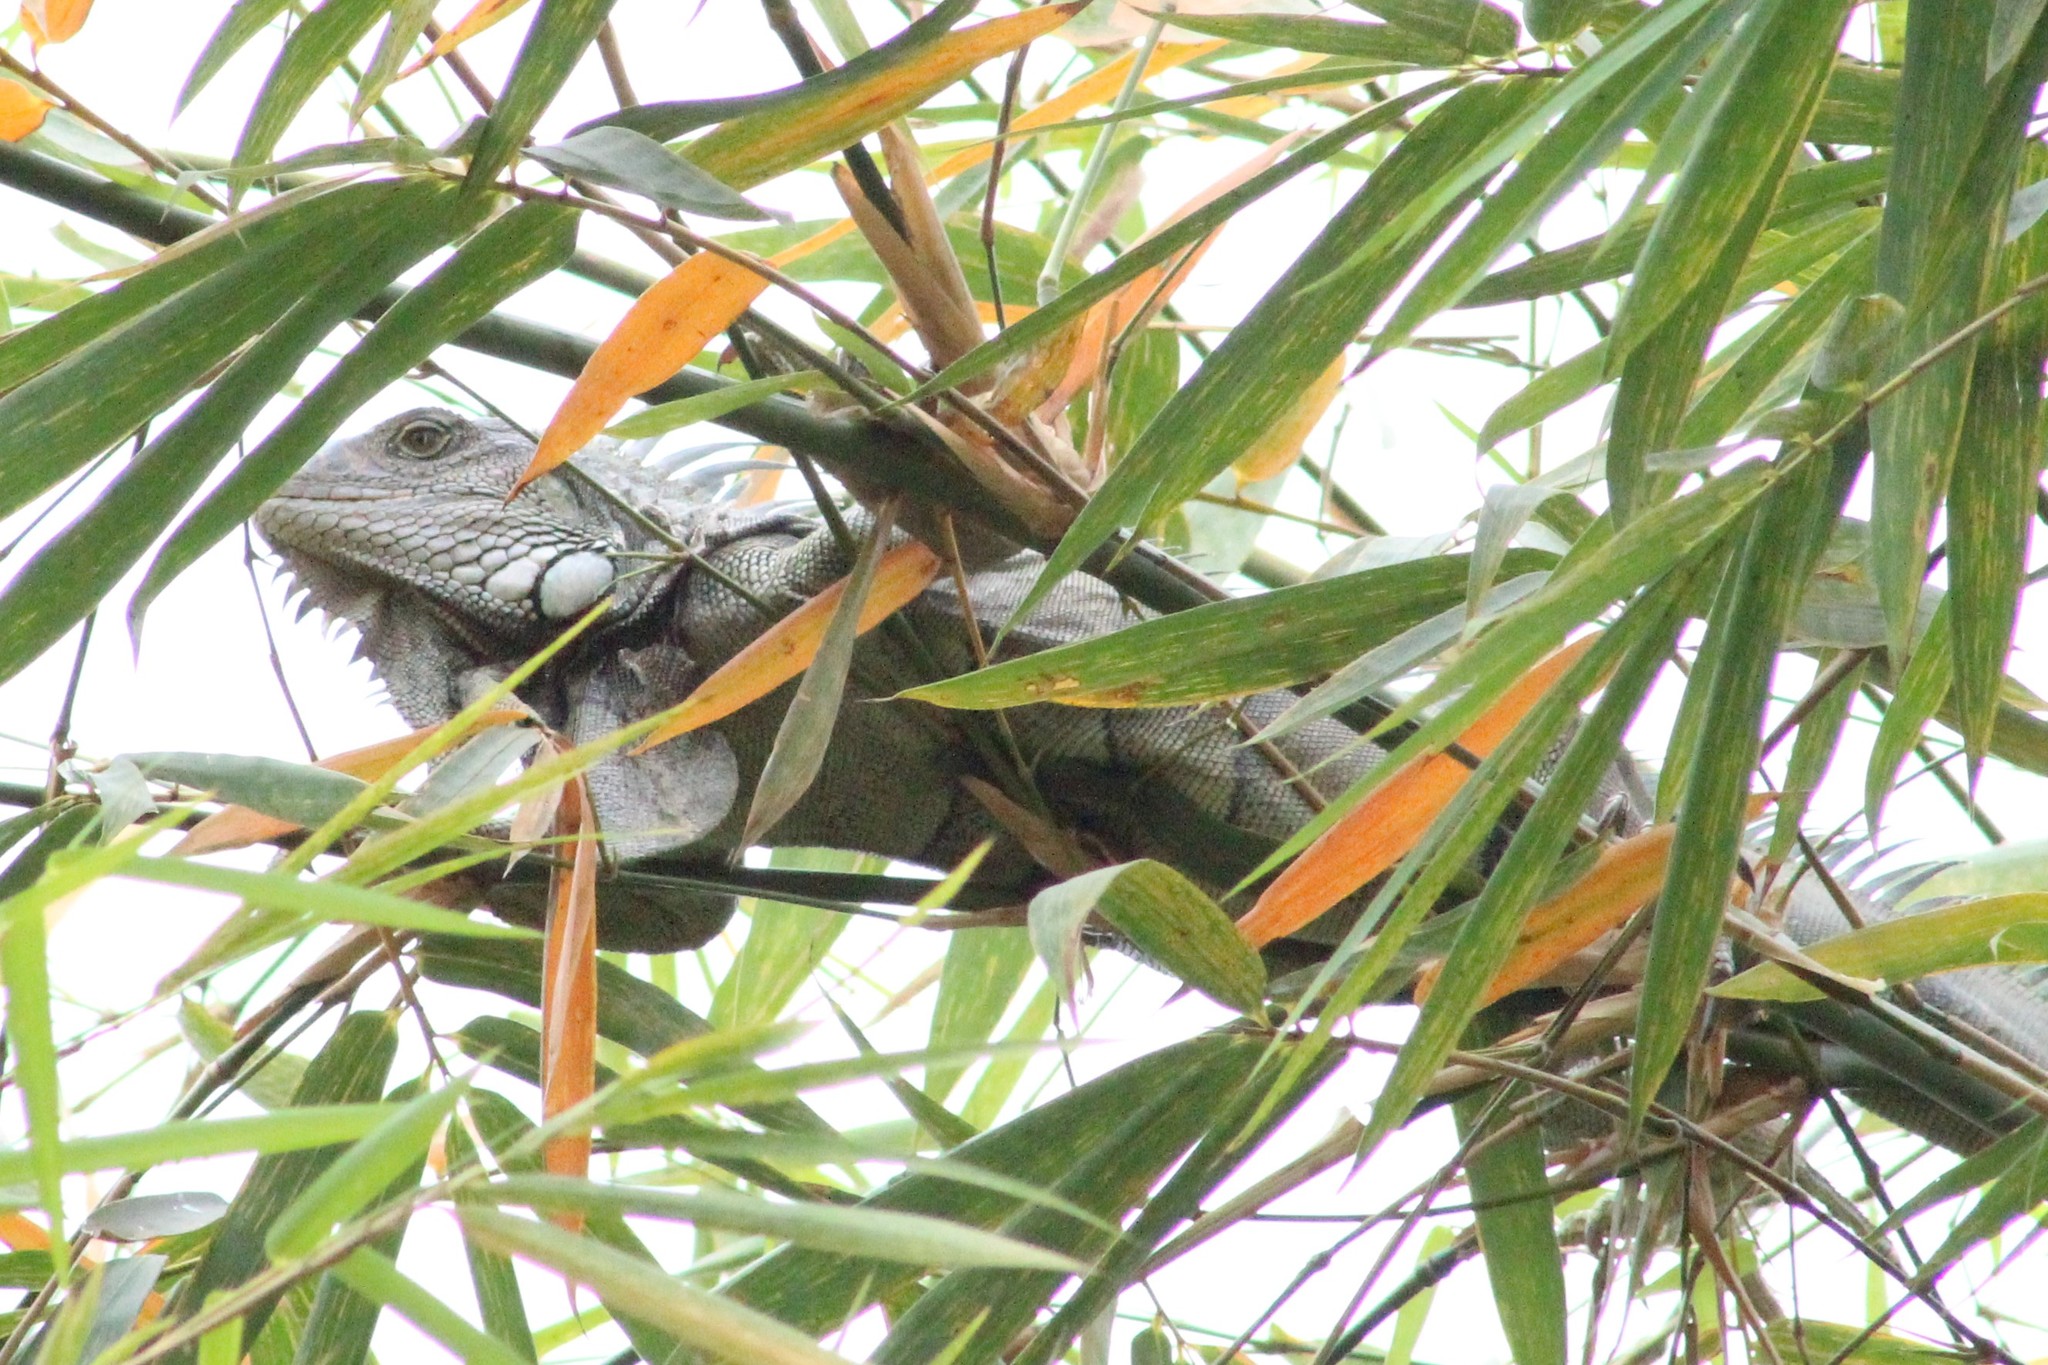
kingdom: Animalia
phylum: Chordata
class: Squamata
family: Iguanidae
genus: Iguana
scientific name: Iguana iguana
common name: Green iguana
